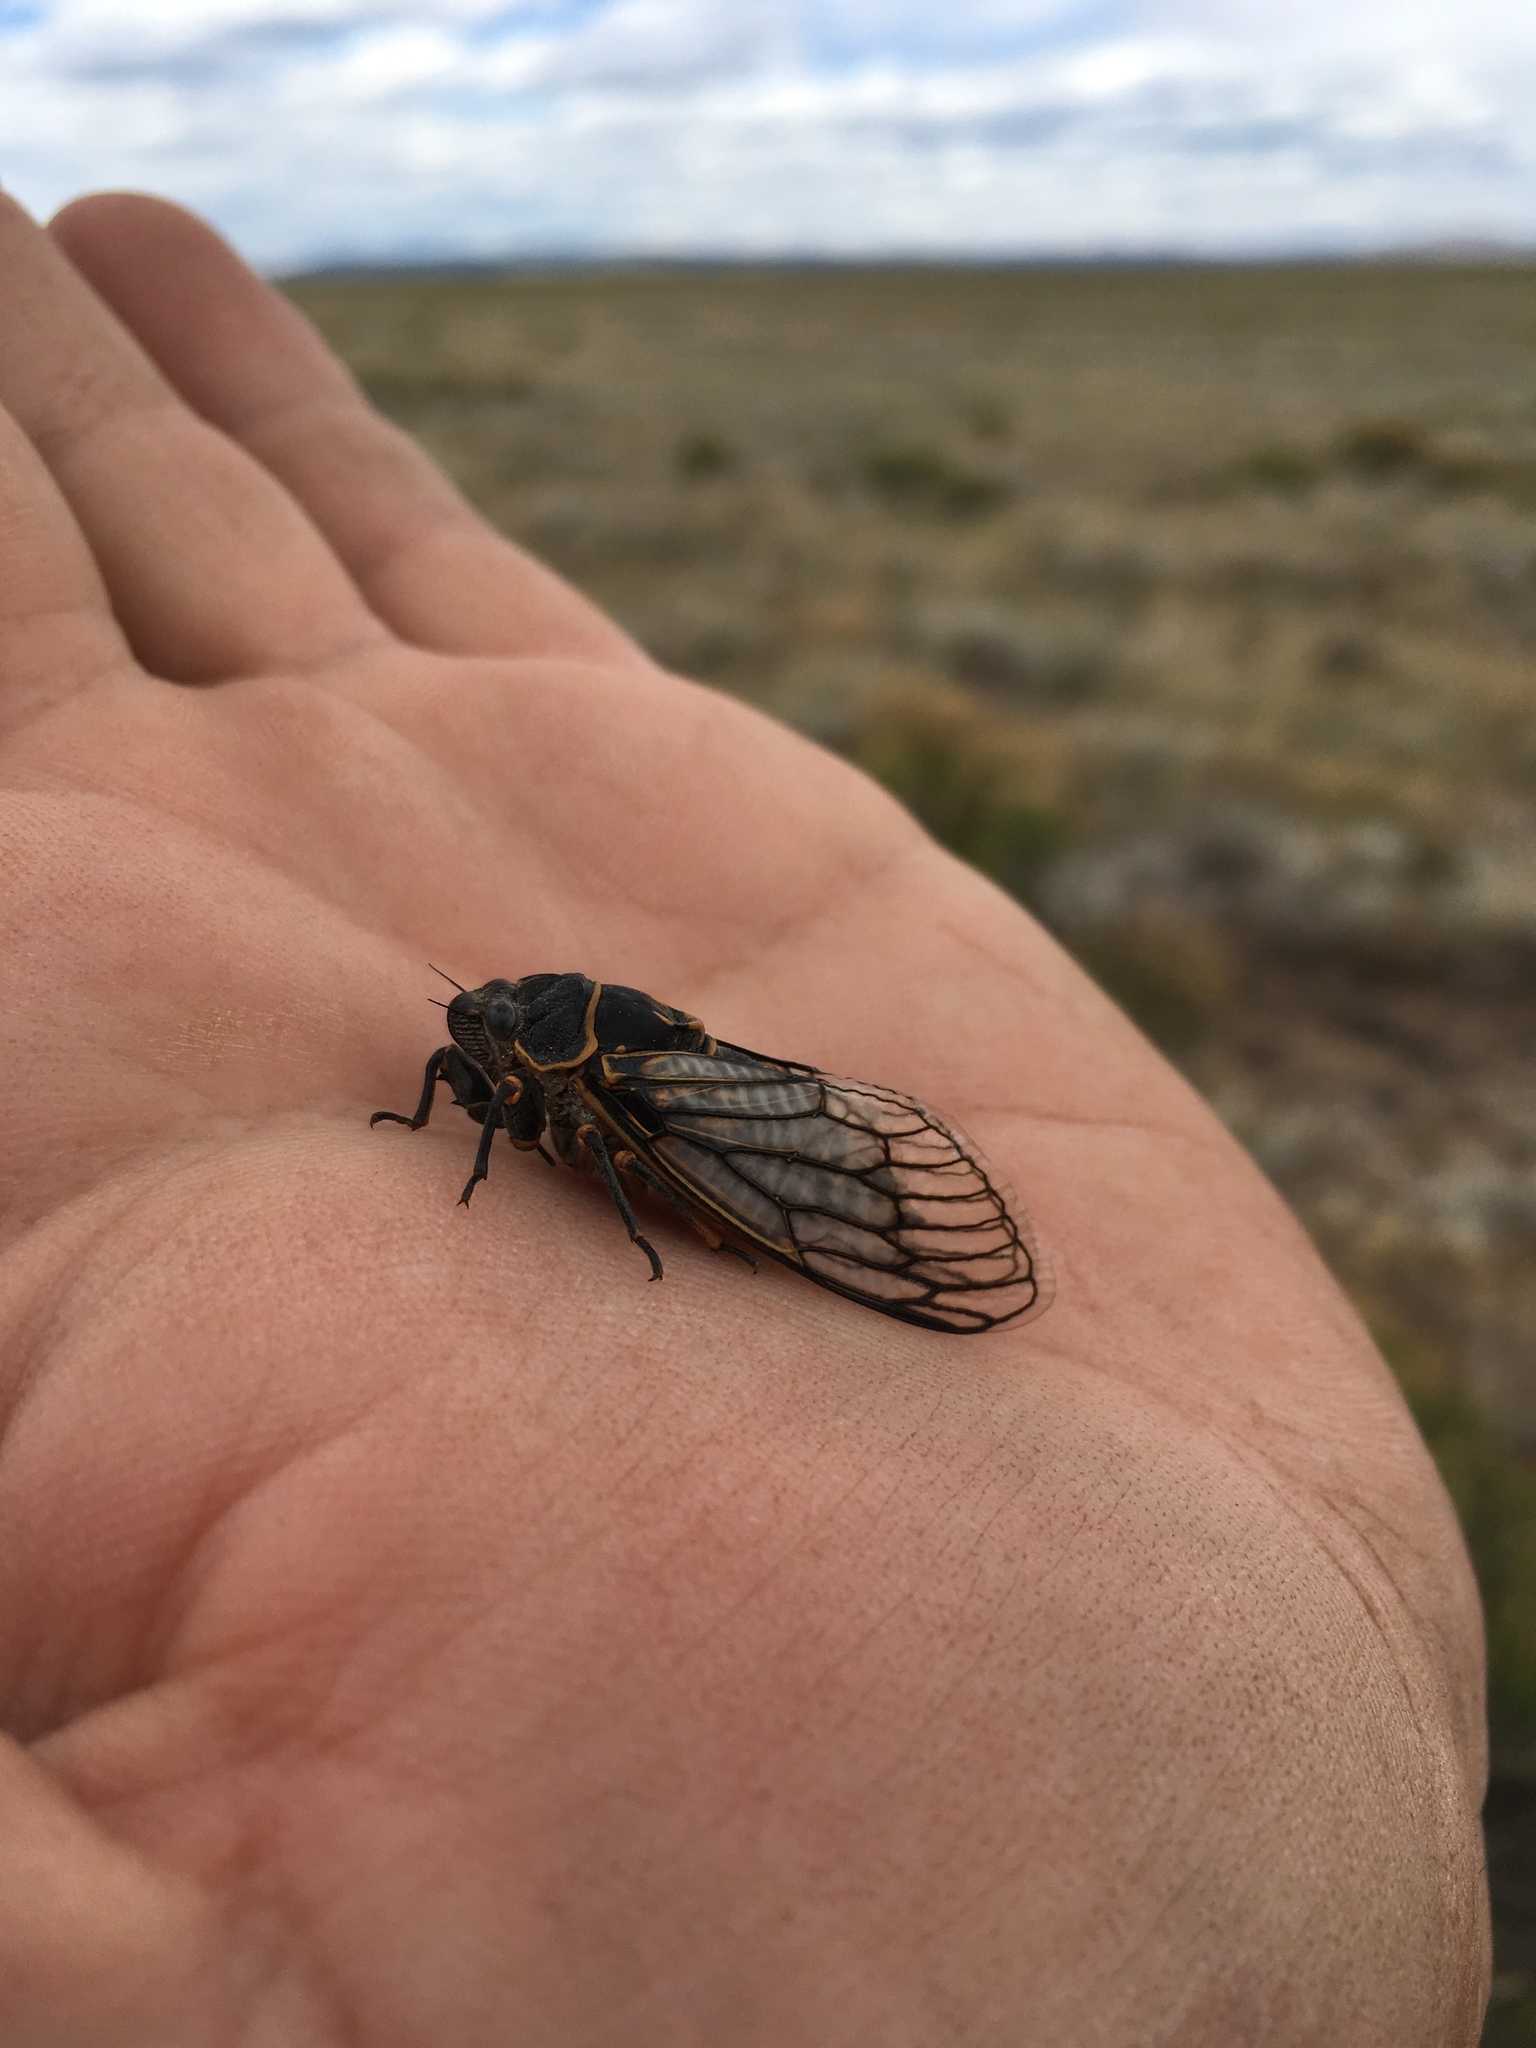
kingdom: Animalia
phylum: Arthropoda
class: Insecta
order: Hemiptera
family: Cicadidae
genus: Okanagana
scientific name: Okanagana fumipennis
